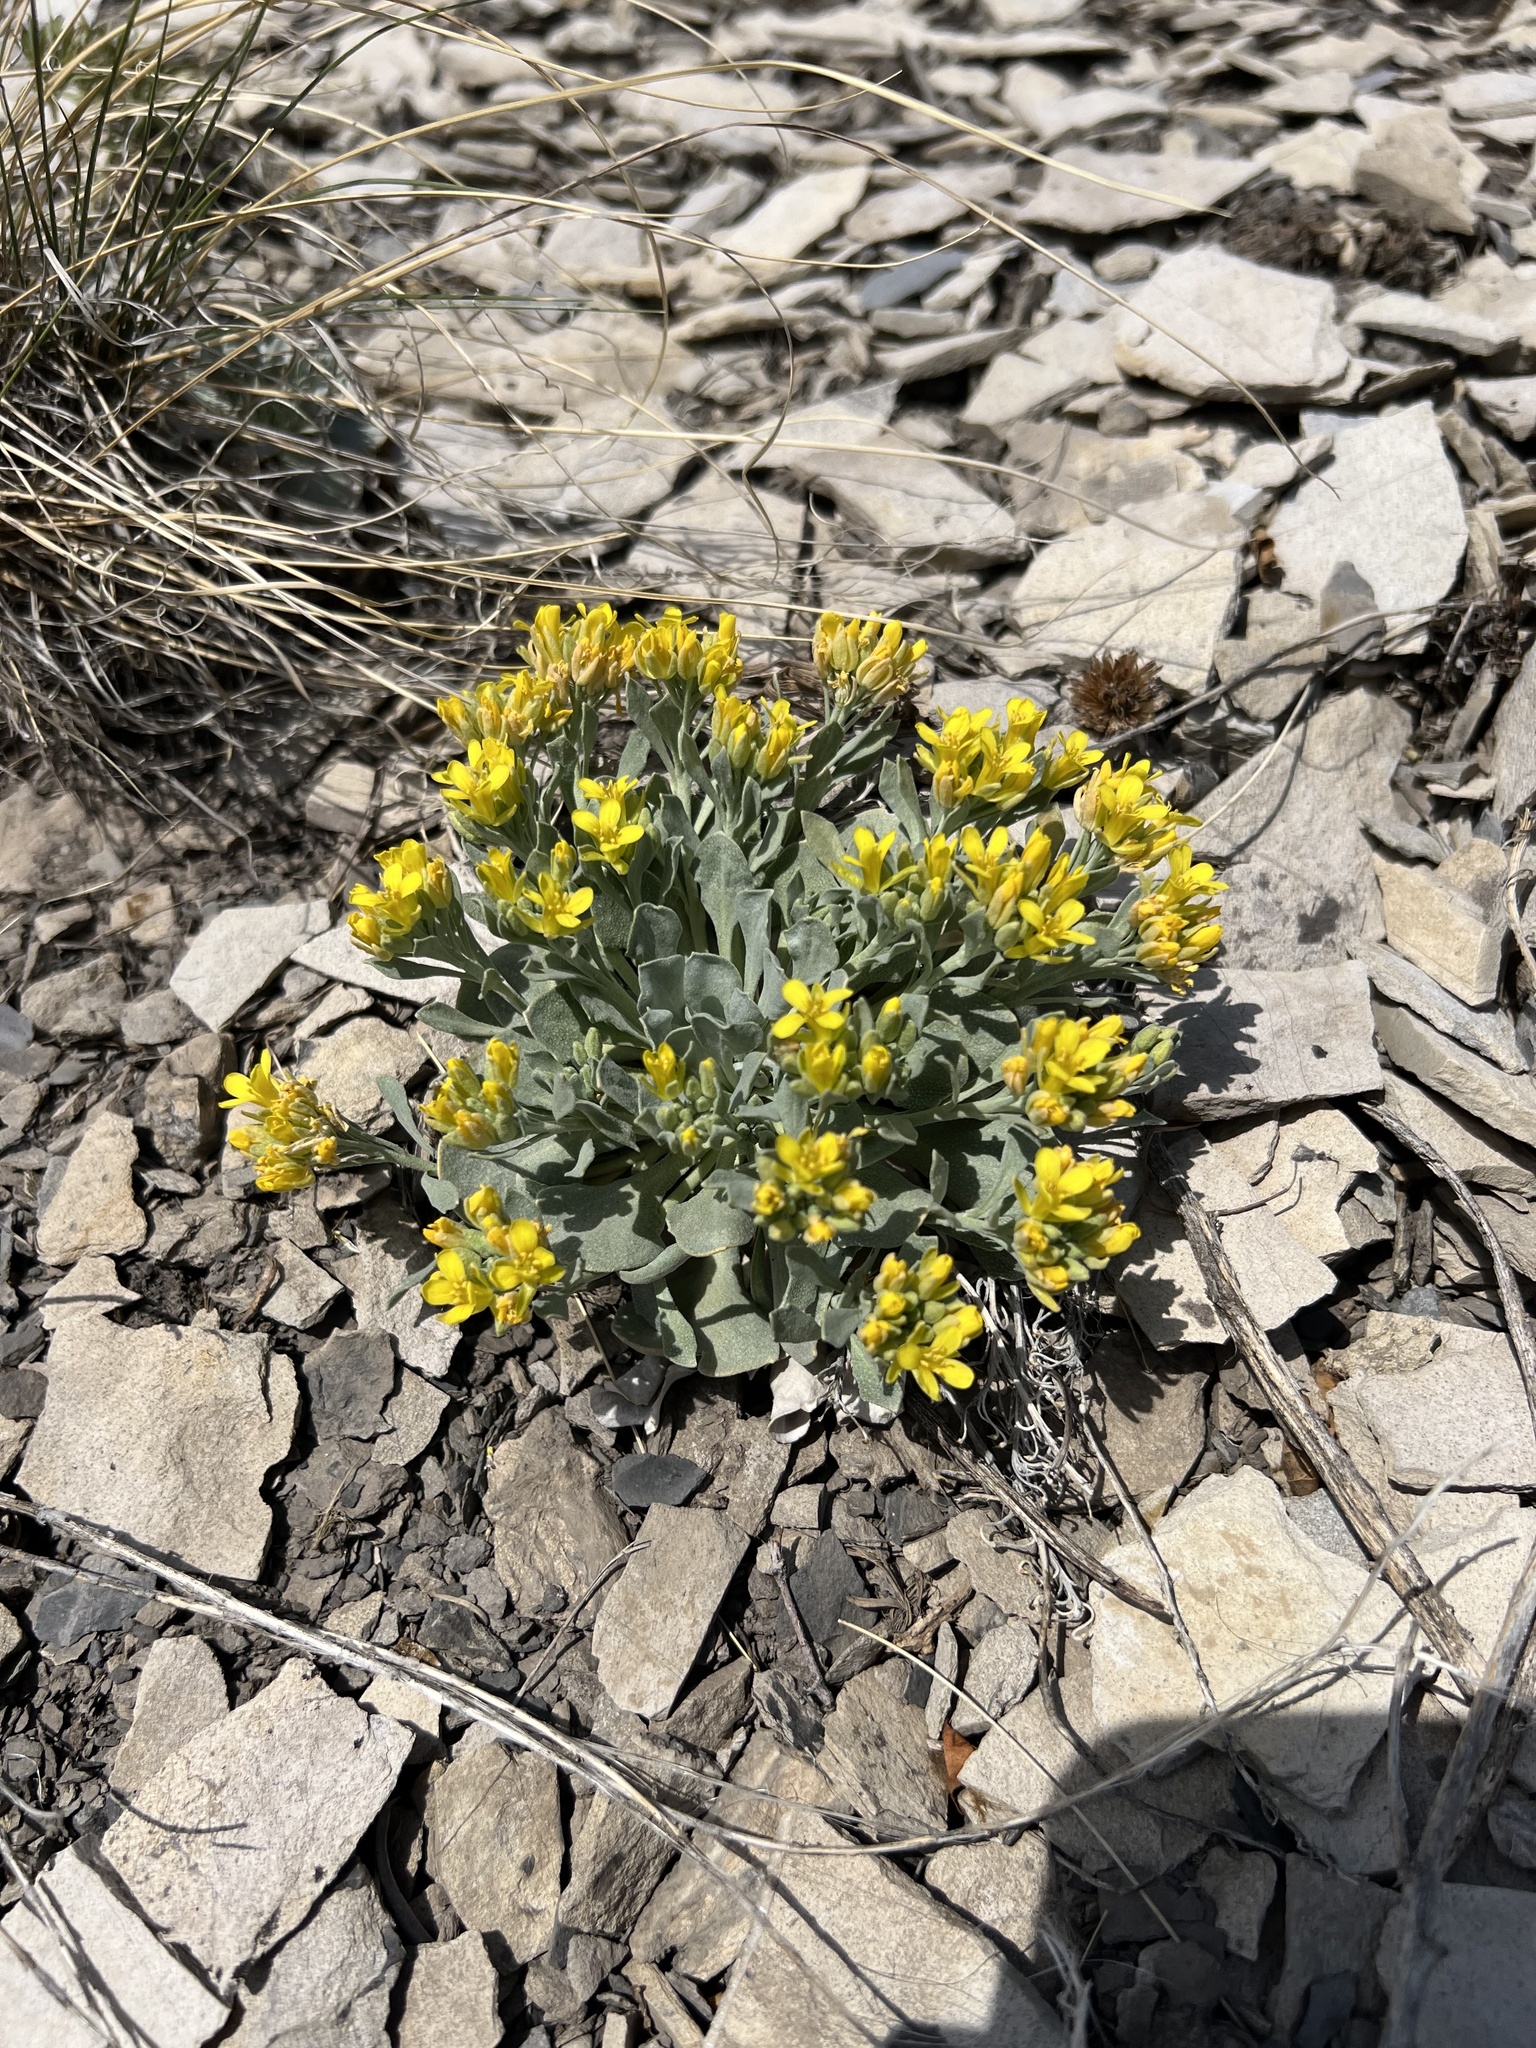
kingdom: Plantae
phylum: Tracheophyta
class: Magnoliopsida
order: Brassicales
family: Brassicaceae
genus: Physaria
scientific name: Physaria bellii
